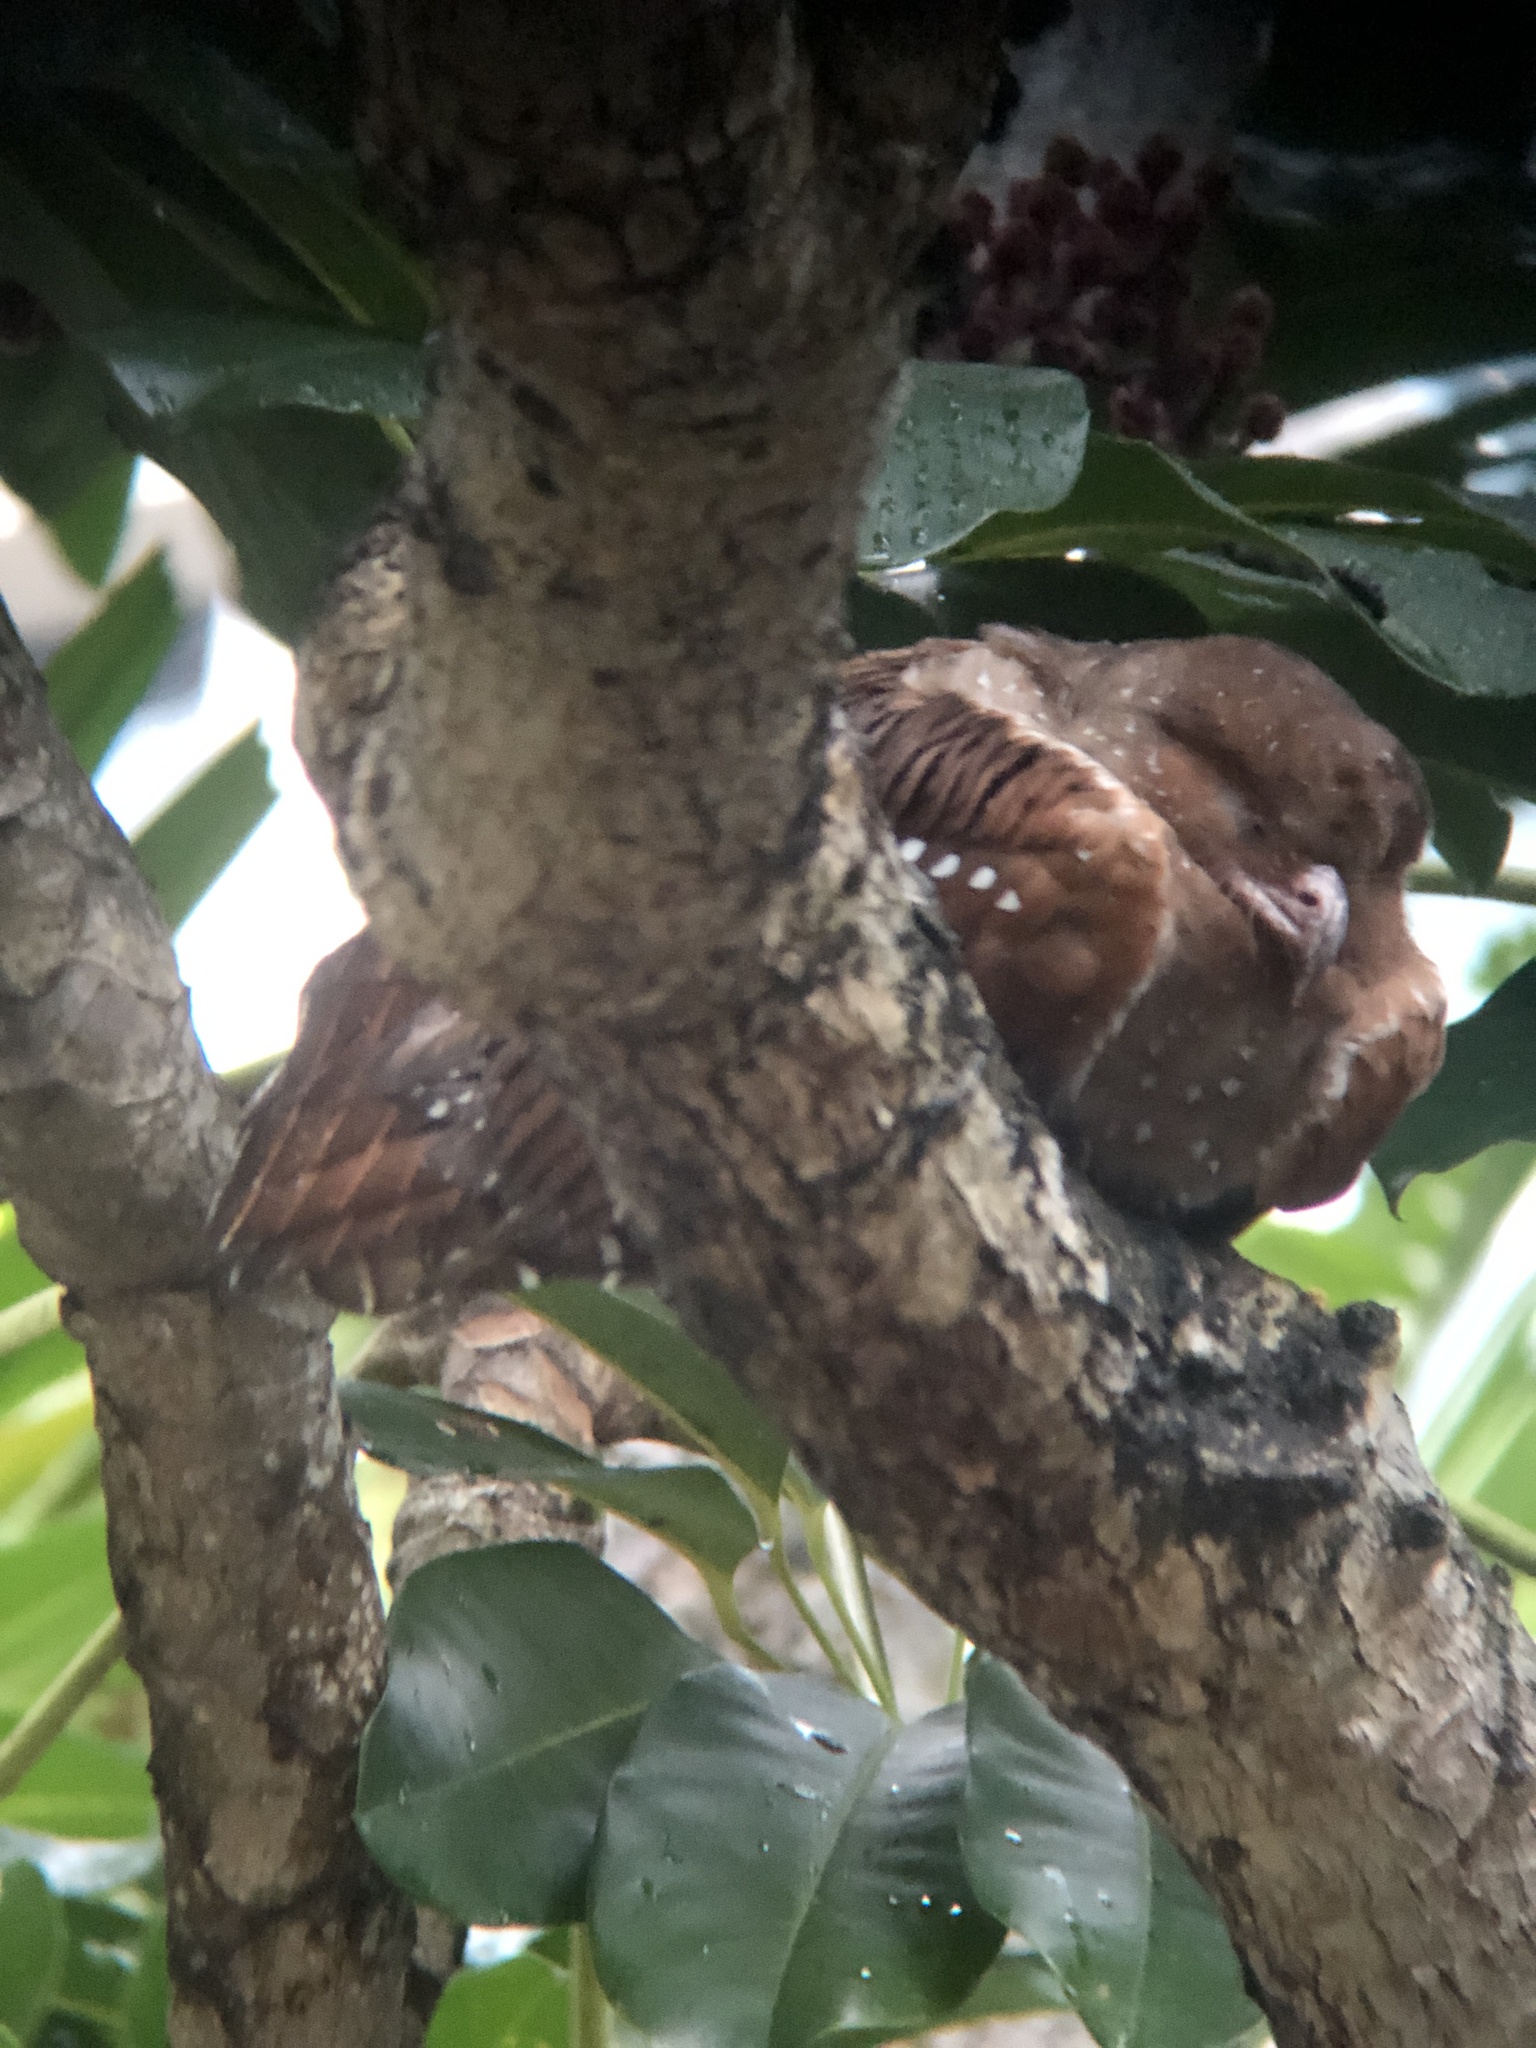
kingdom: Animalia
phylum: Chordata
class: Aves
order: Steatornithiformes
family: Steatornithidae
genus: Steatornis
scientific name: Steatornis caripensis
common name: Oilbird
